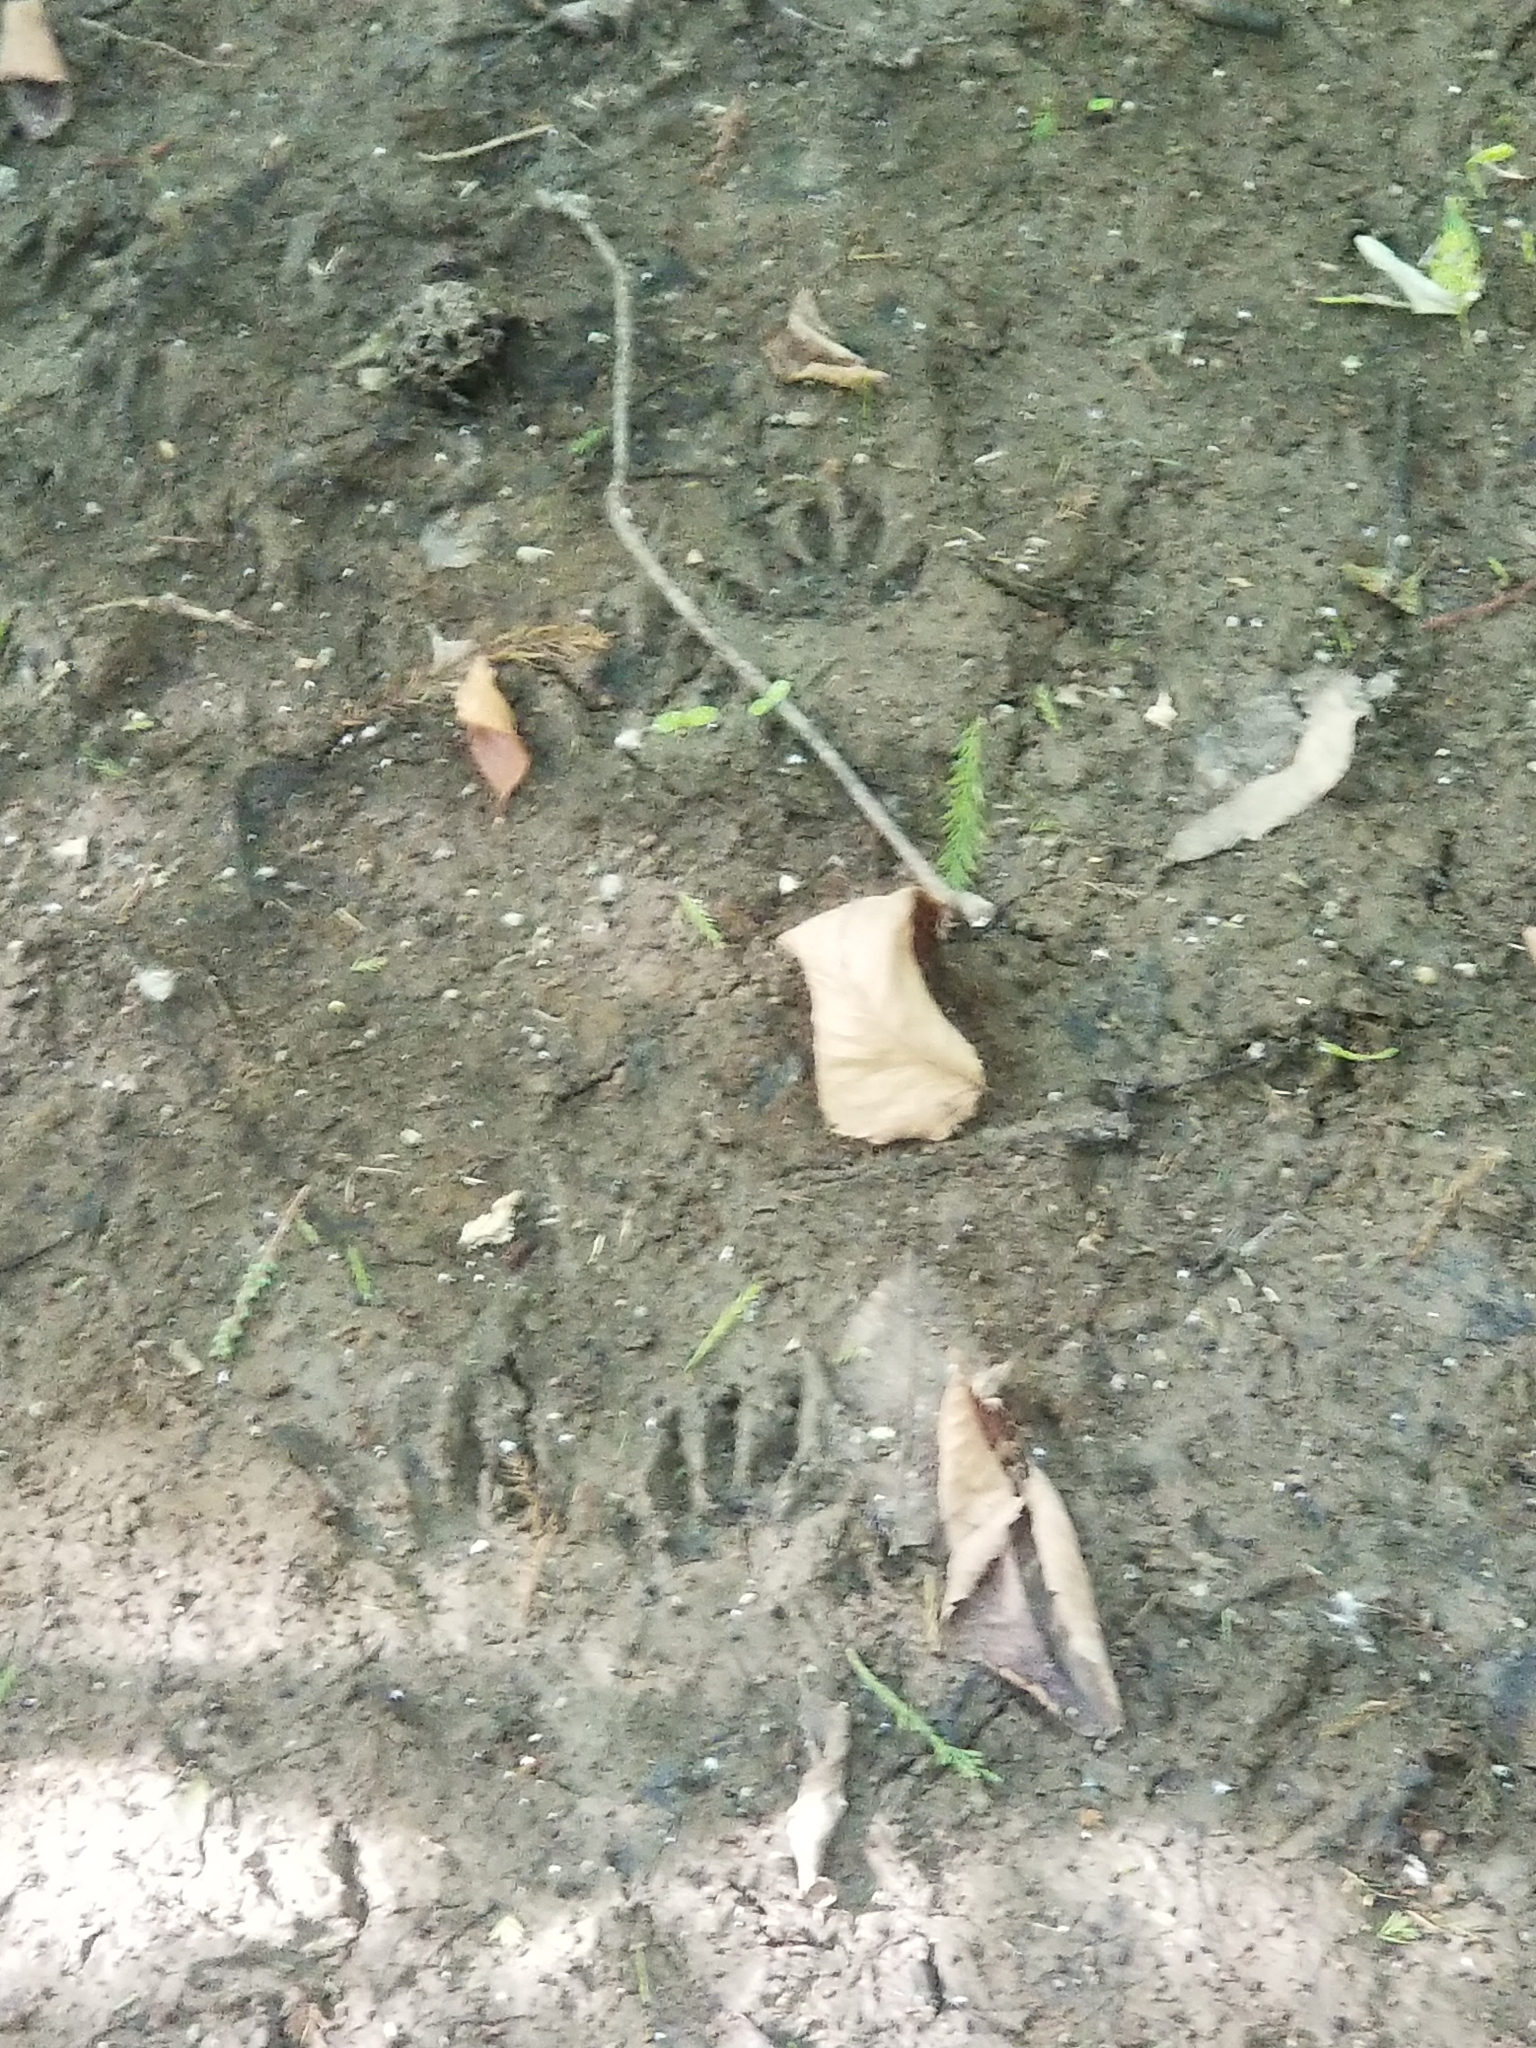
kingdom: Animalia
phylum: Chordata
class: Mammalia
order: Carnivora
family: Procyonidae
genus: Procyon
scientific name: Procyon lotor
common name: Raccoon
